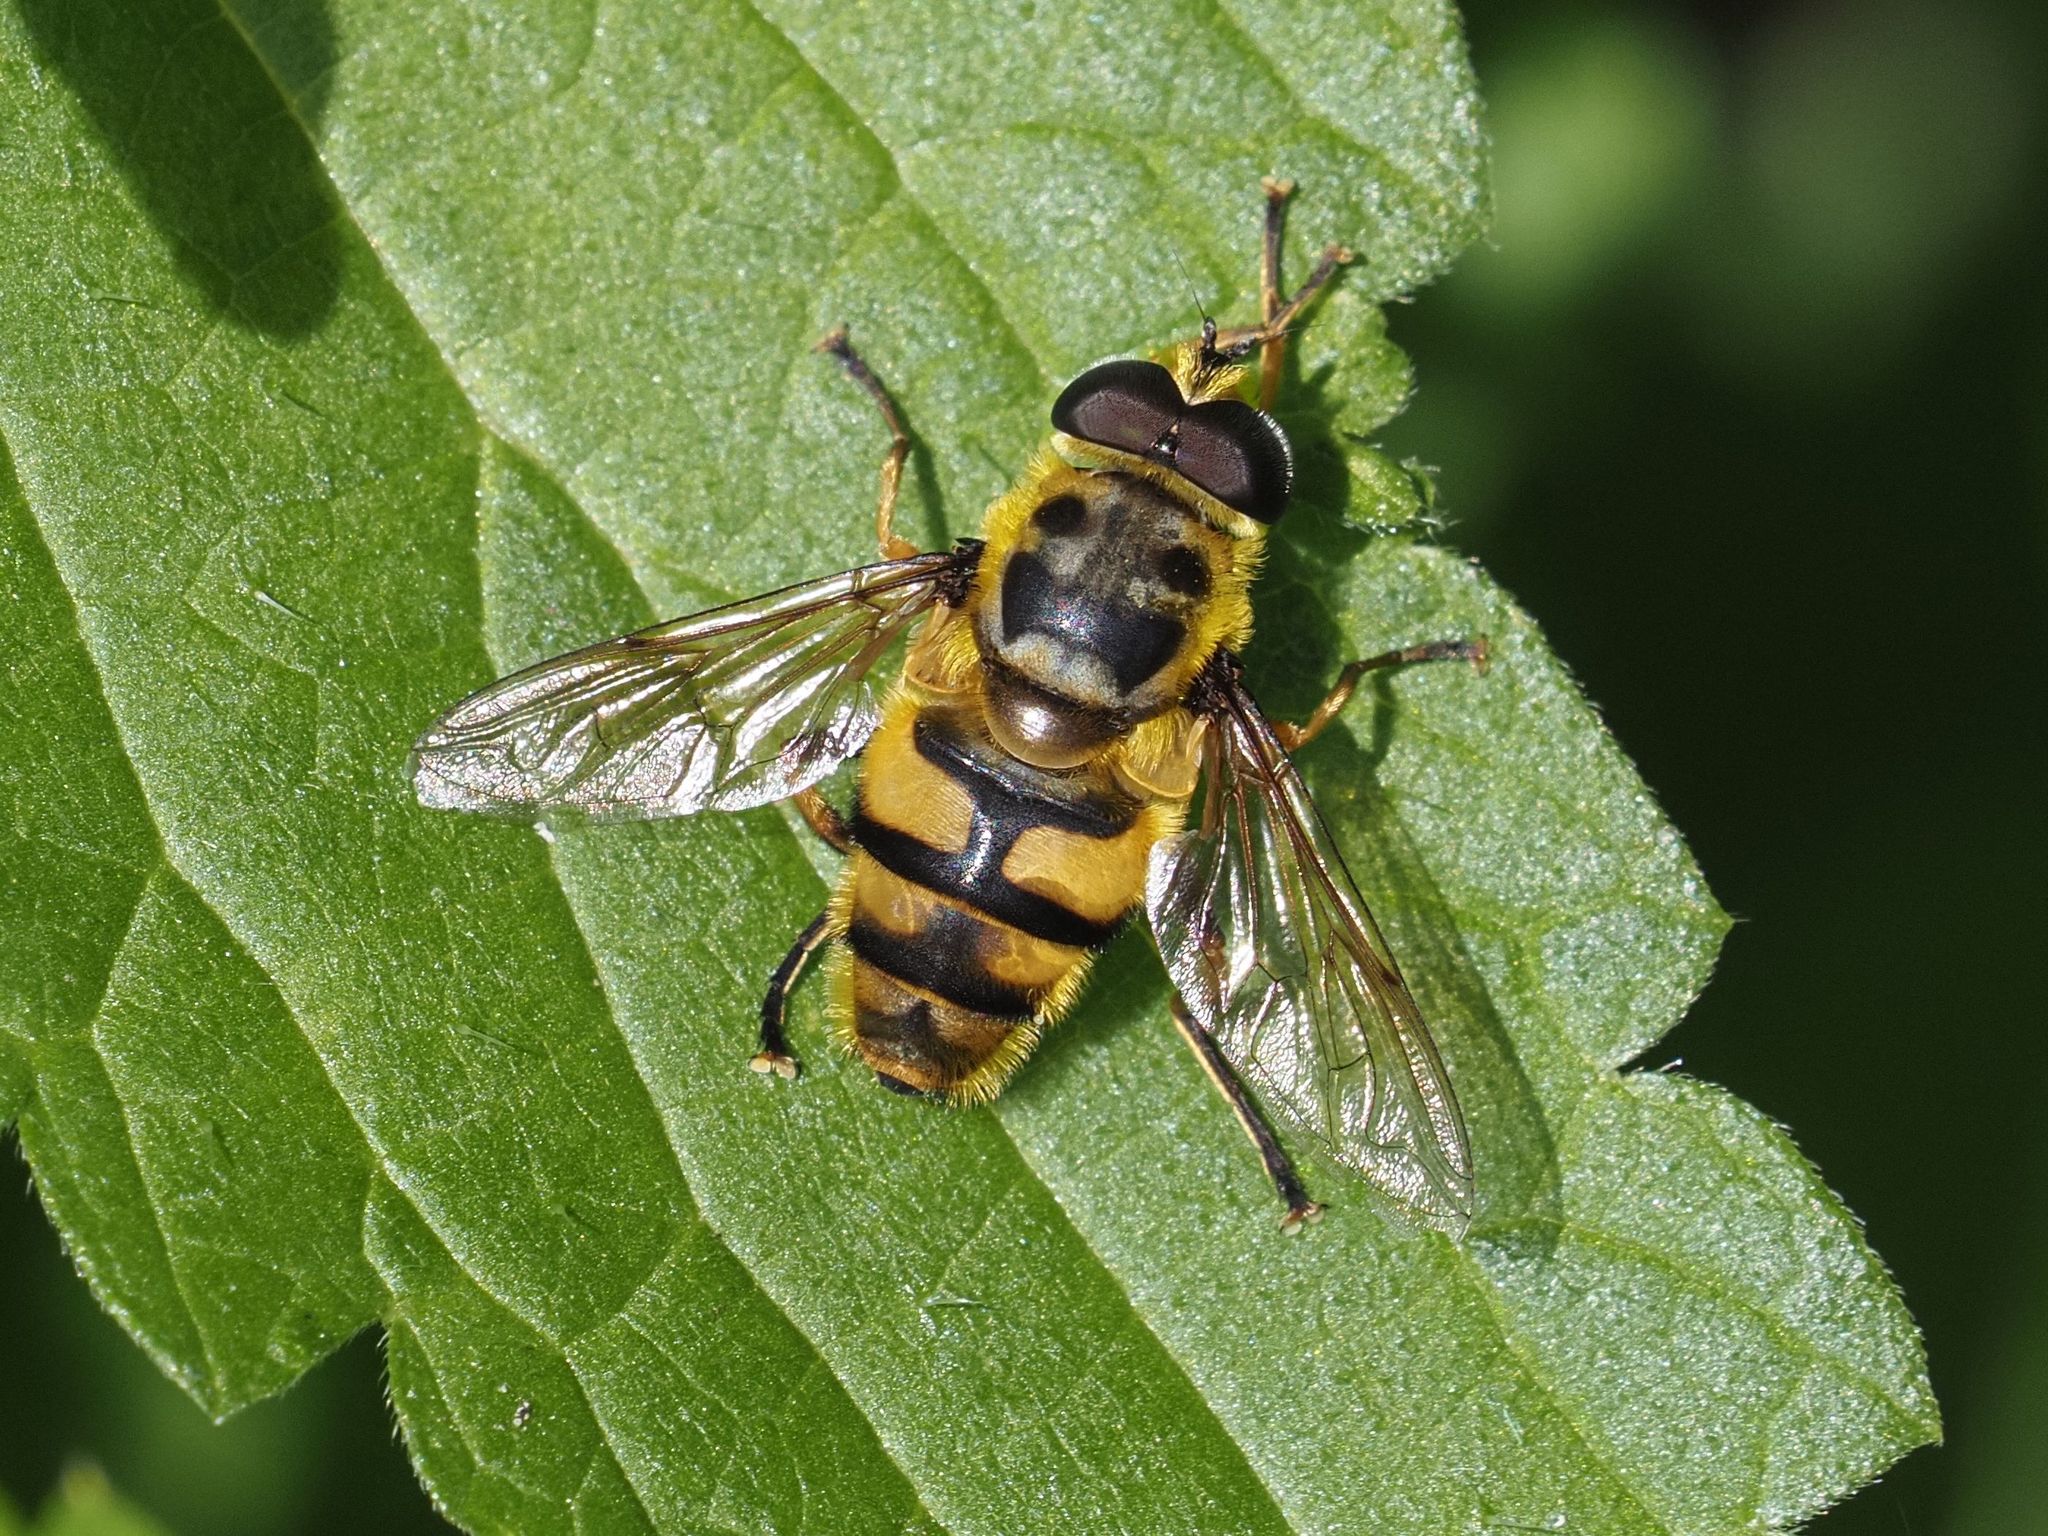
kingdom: Animalia
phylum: Arthropoda
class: Insecta
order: Diptera
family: Syrphidae
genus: Myathropa
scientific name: Myathropa florea
